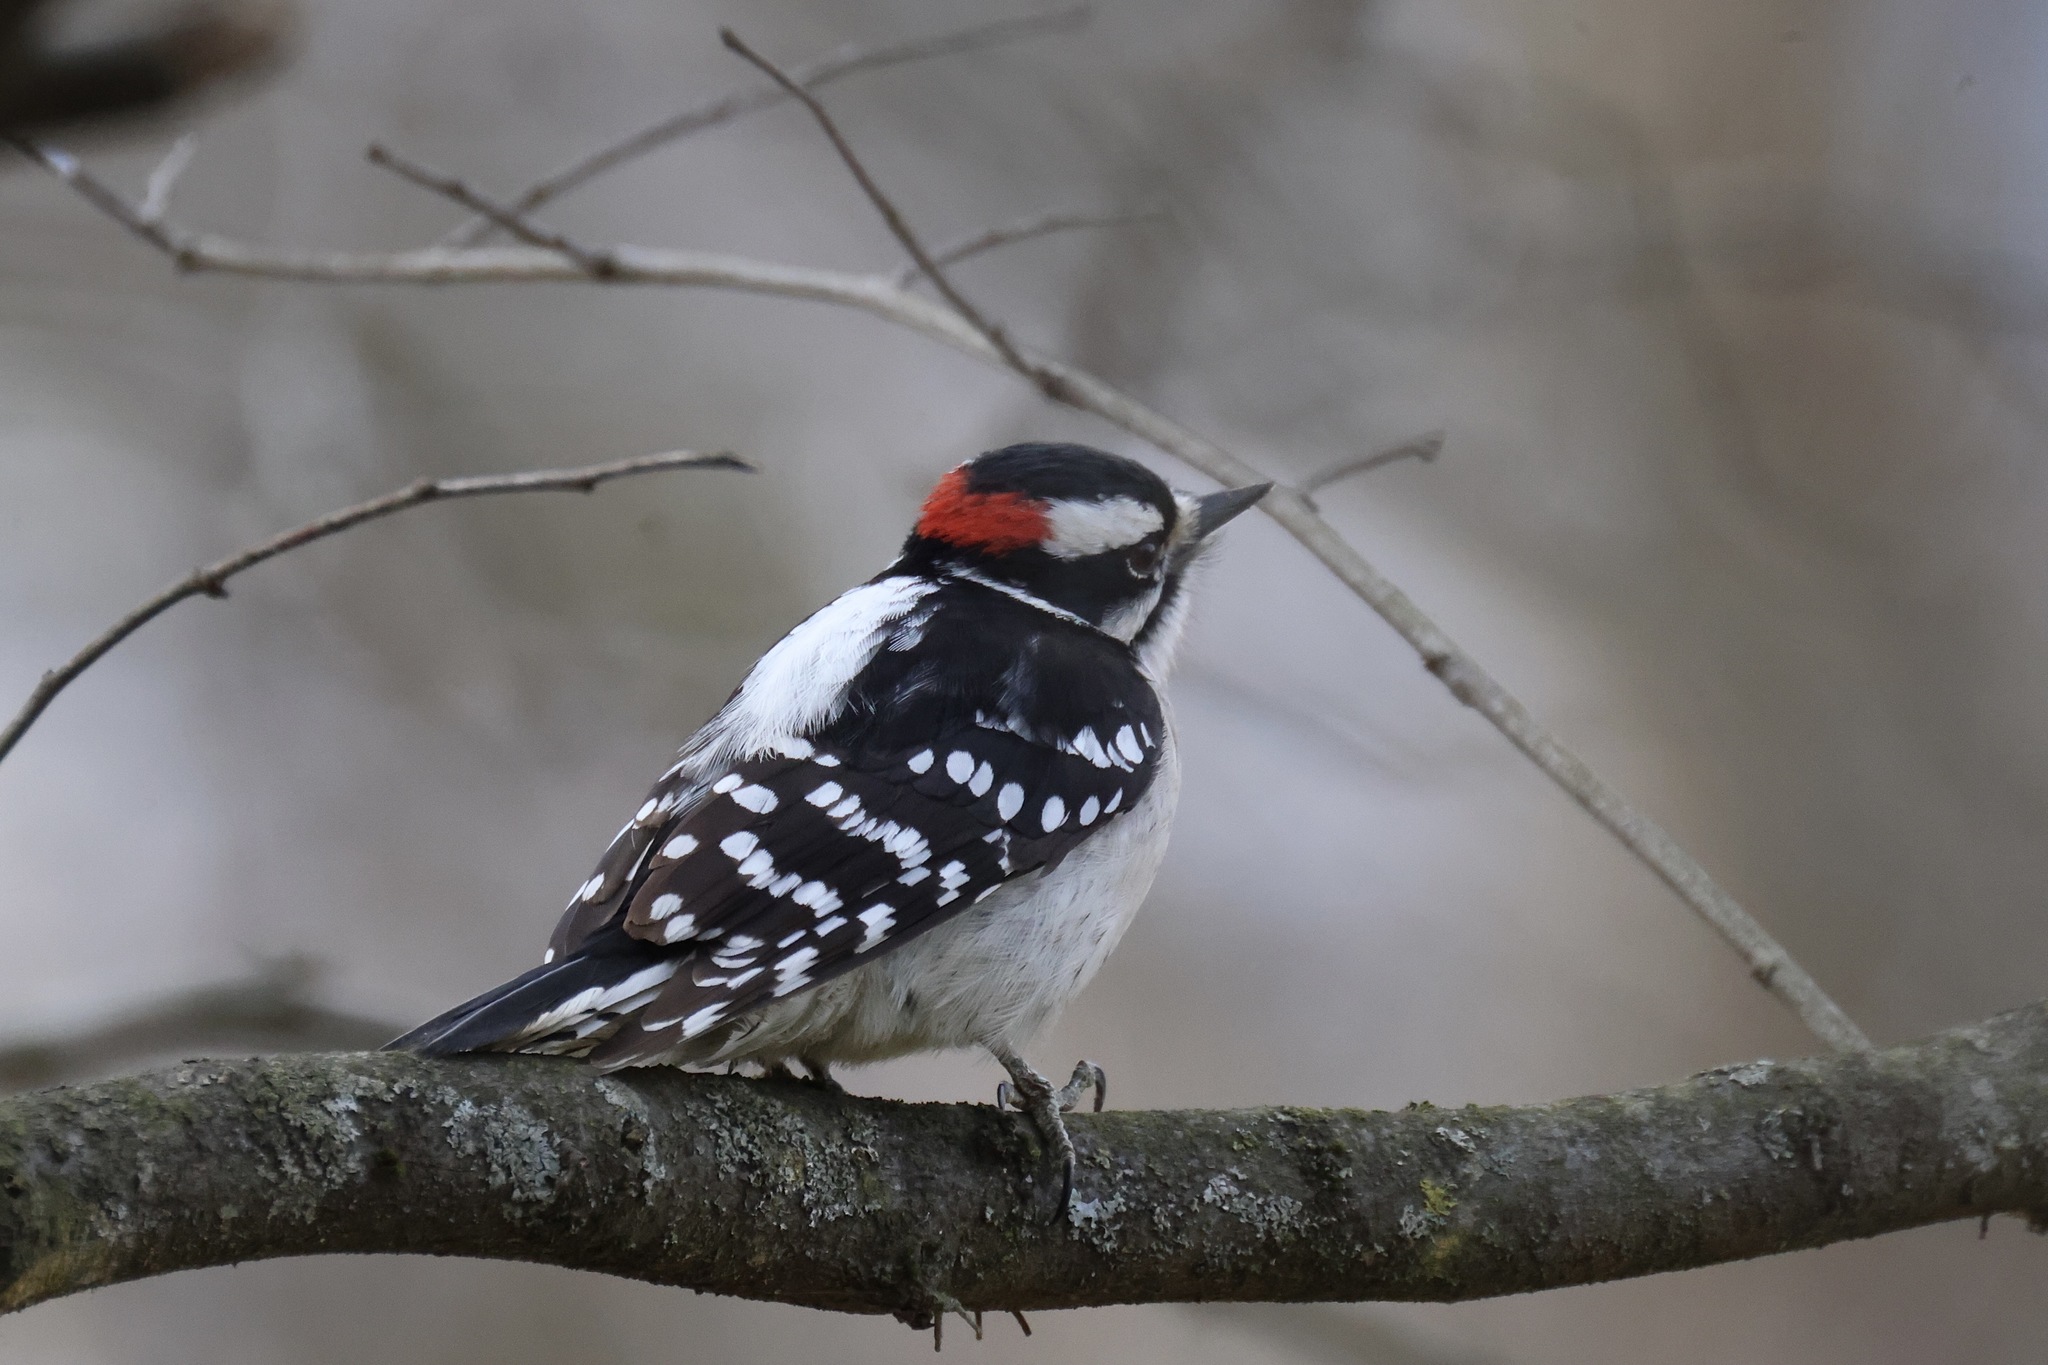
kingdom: Animalia
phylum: Chordata
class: Aves
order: Piciformes
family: Picidae
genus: Dryobates
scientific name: Dryobates pubescens
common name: Downy woodpecker
